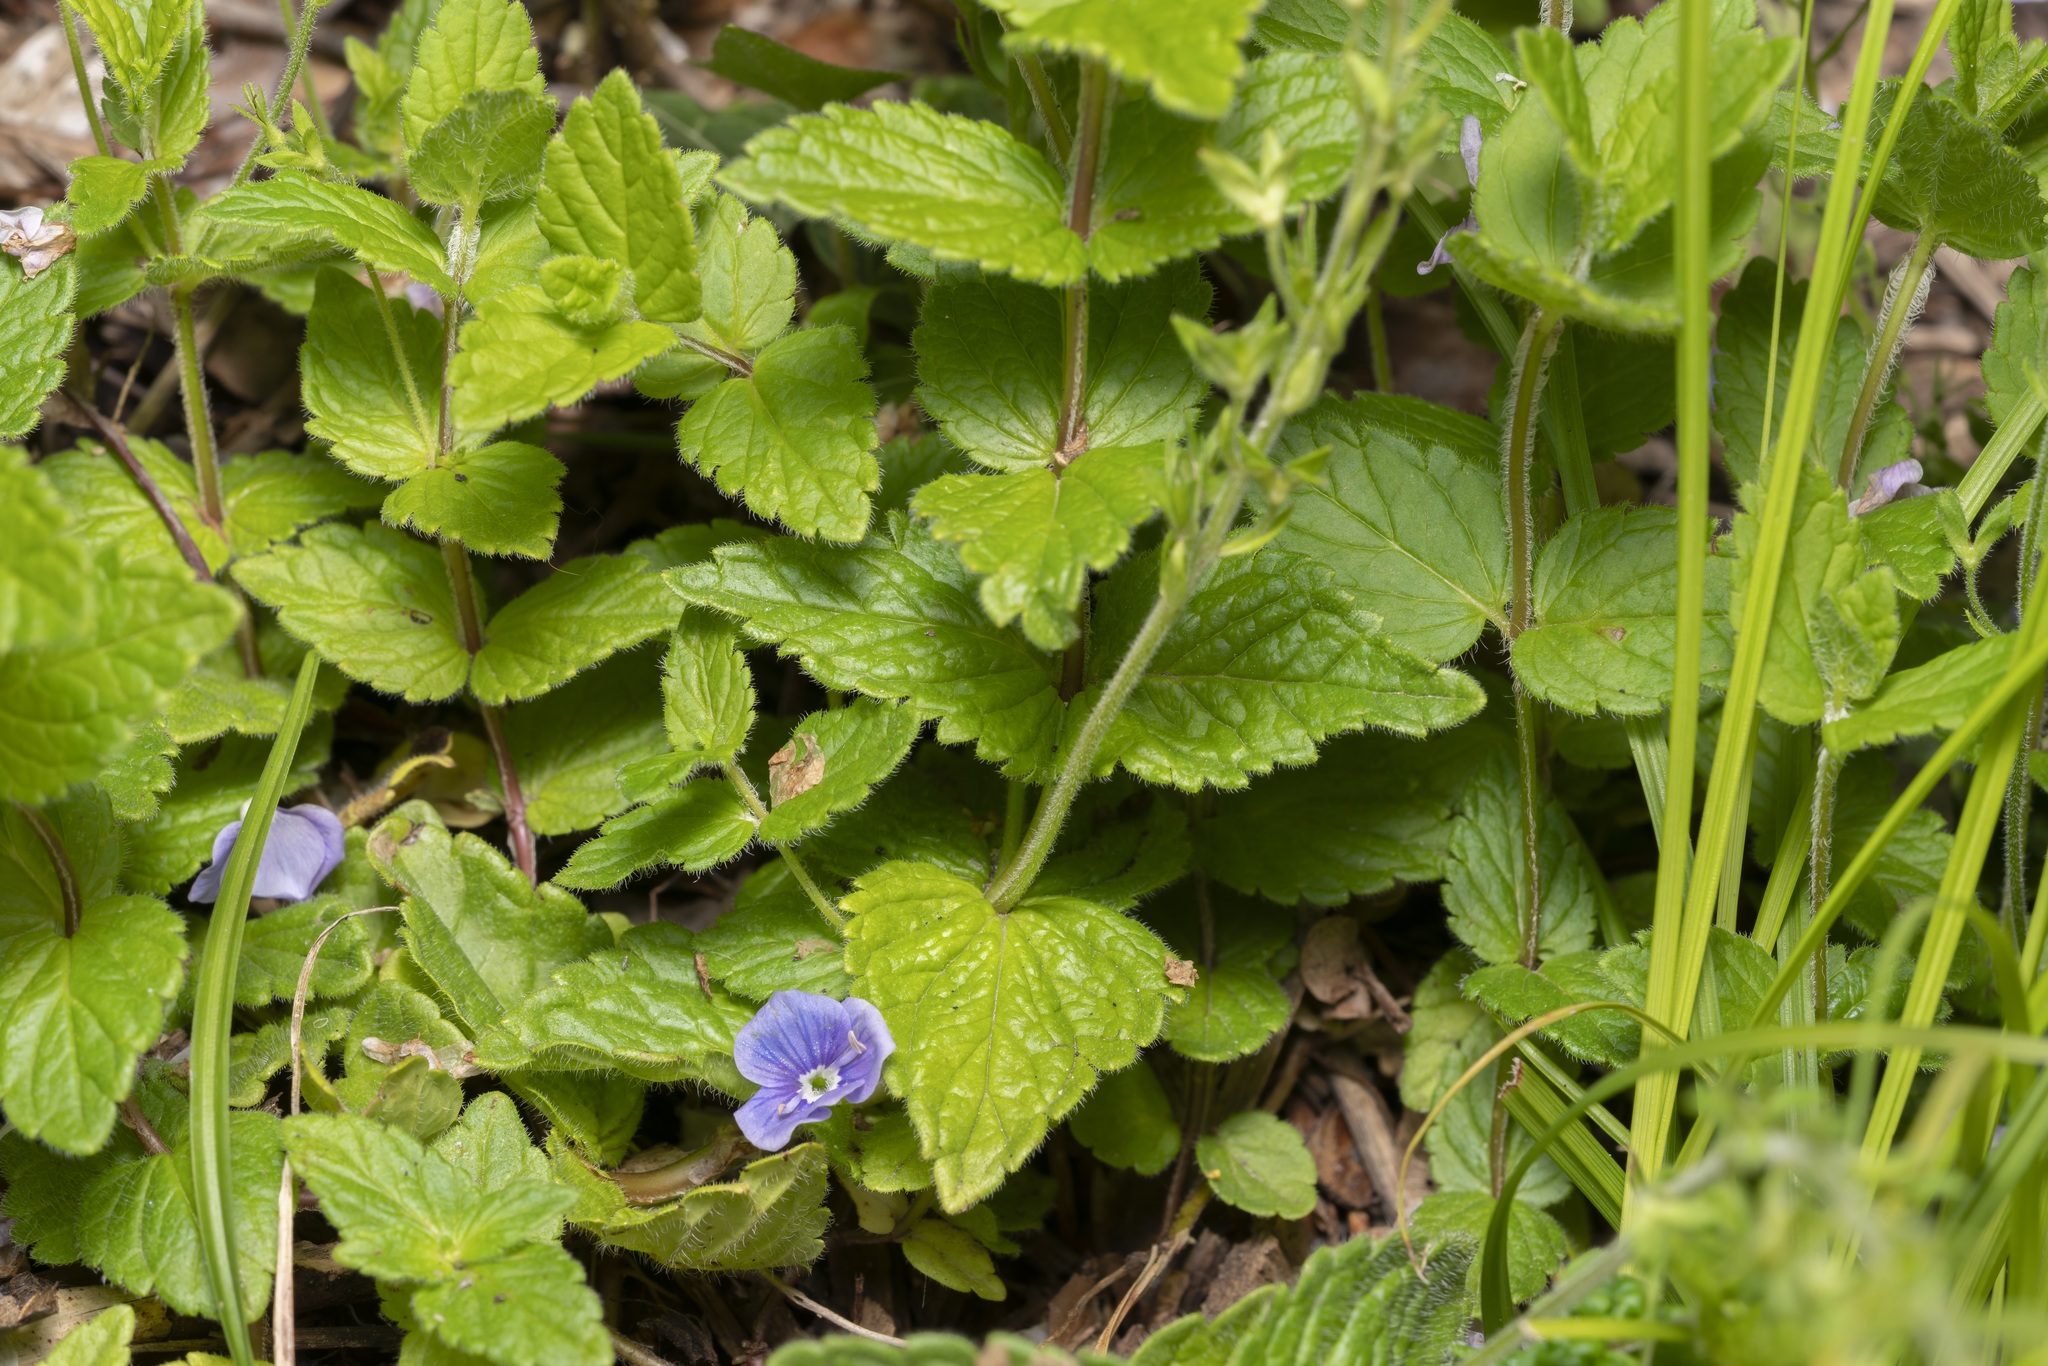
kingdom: Plantae
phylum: Tracheophyta
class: Magnoliopsida
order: Lamiales
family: Plantaginaceae
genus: Veronica
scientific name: Veronica chamaedrys
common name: Germander speedwell
